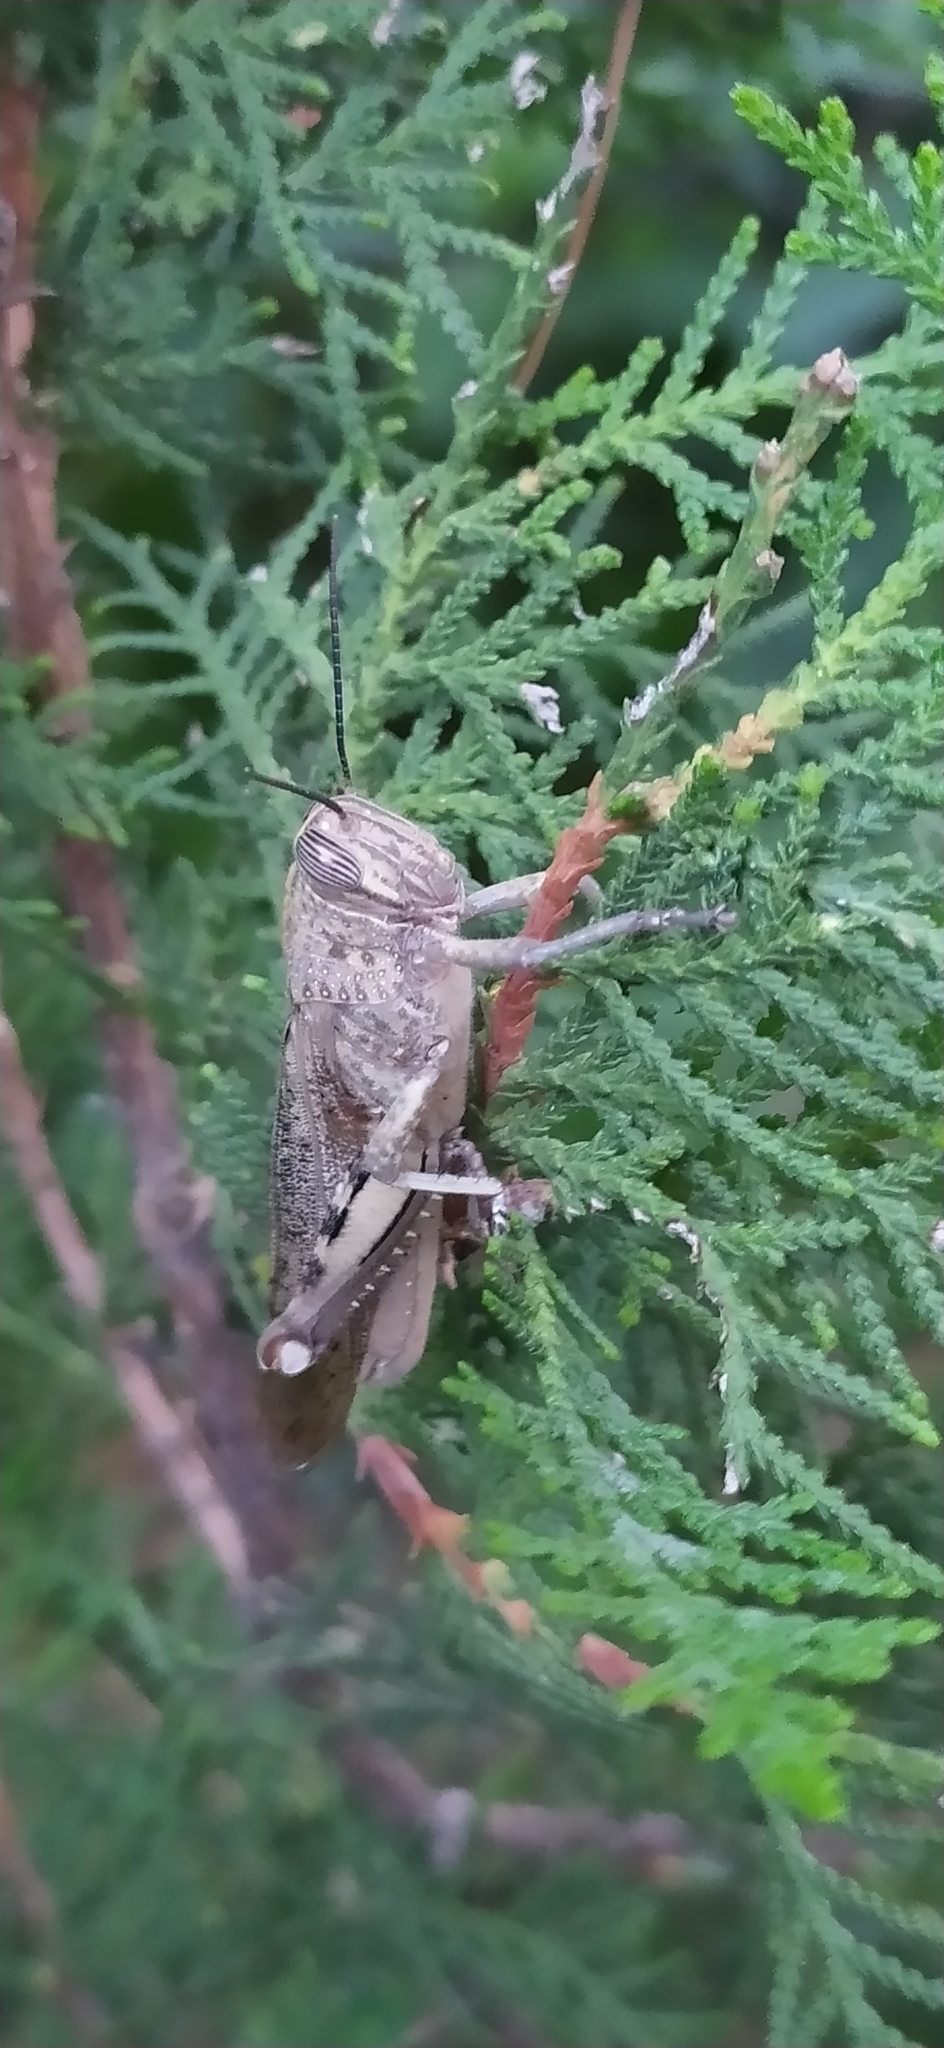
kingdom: Animalia
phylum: Arthropoda
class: Insecta
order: Orthoptera
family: Acrididae
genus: Anacridium
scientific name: Anacridium aegyptium
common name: Egyptian grasshopper
